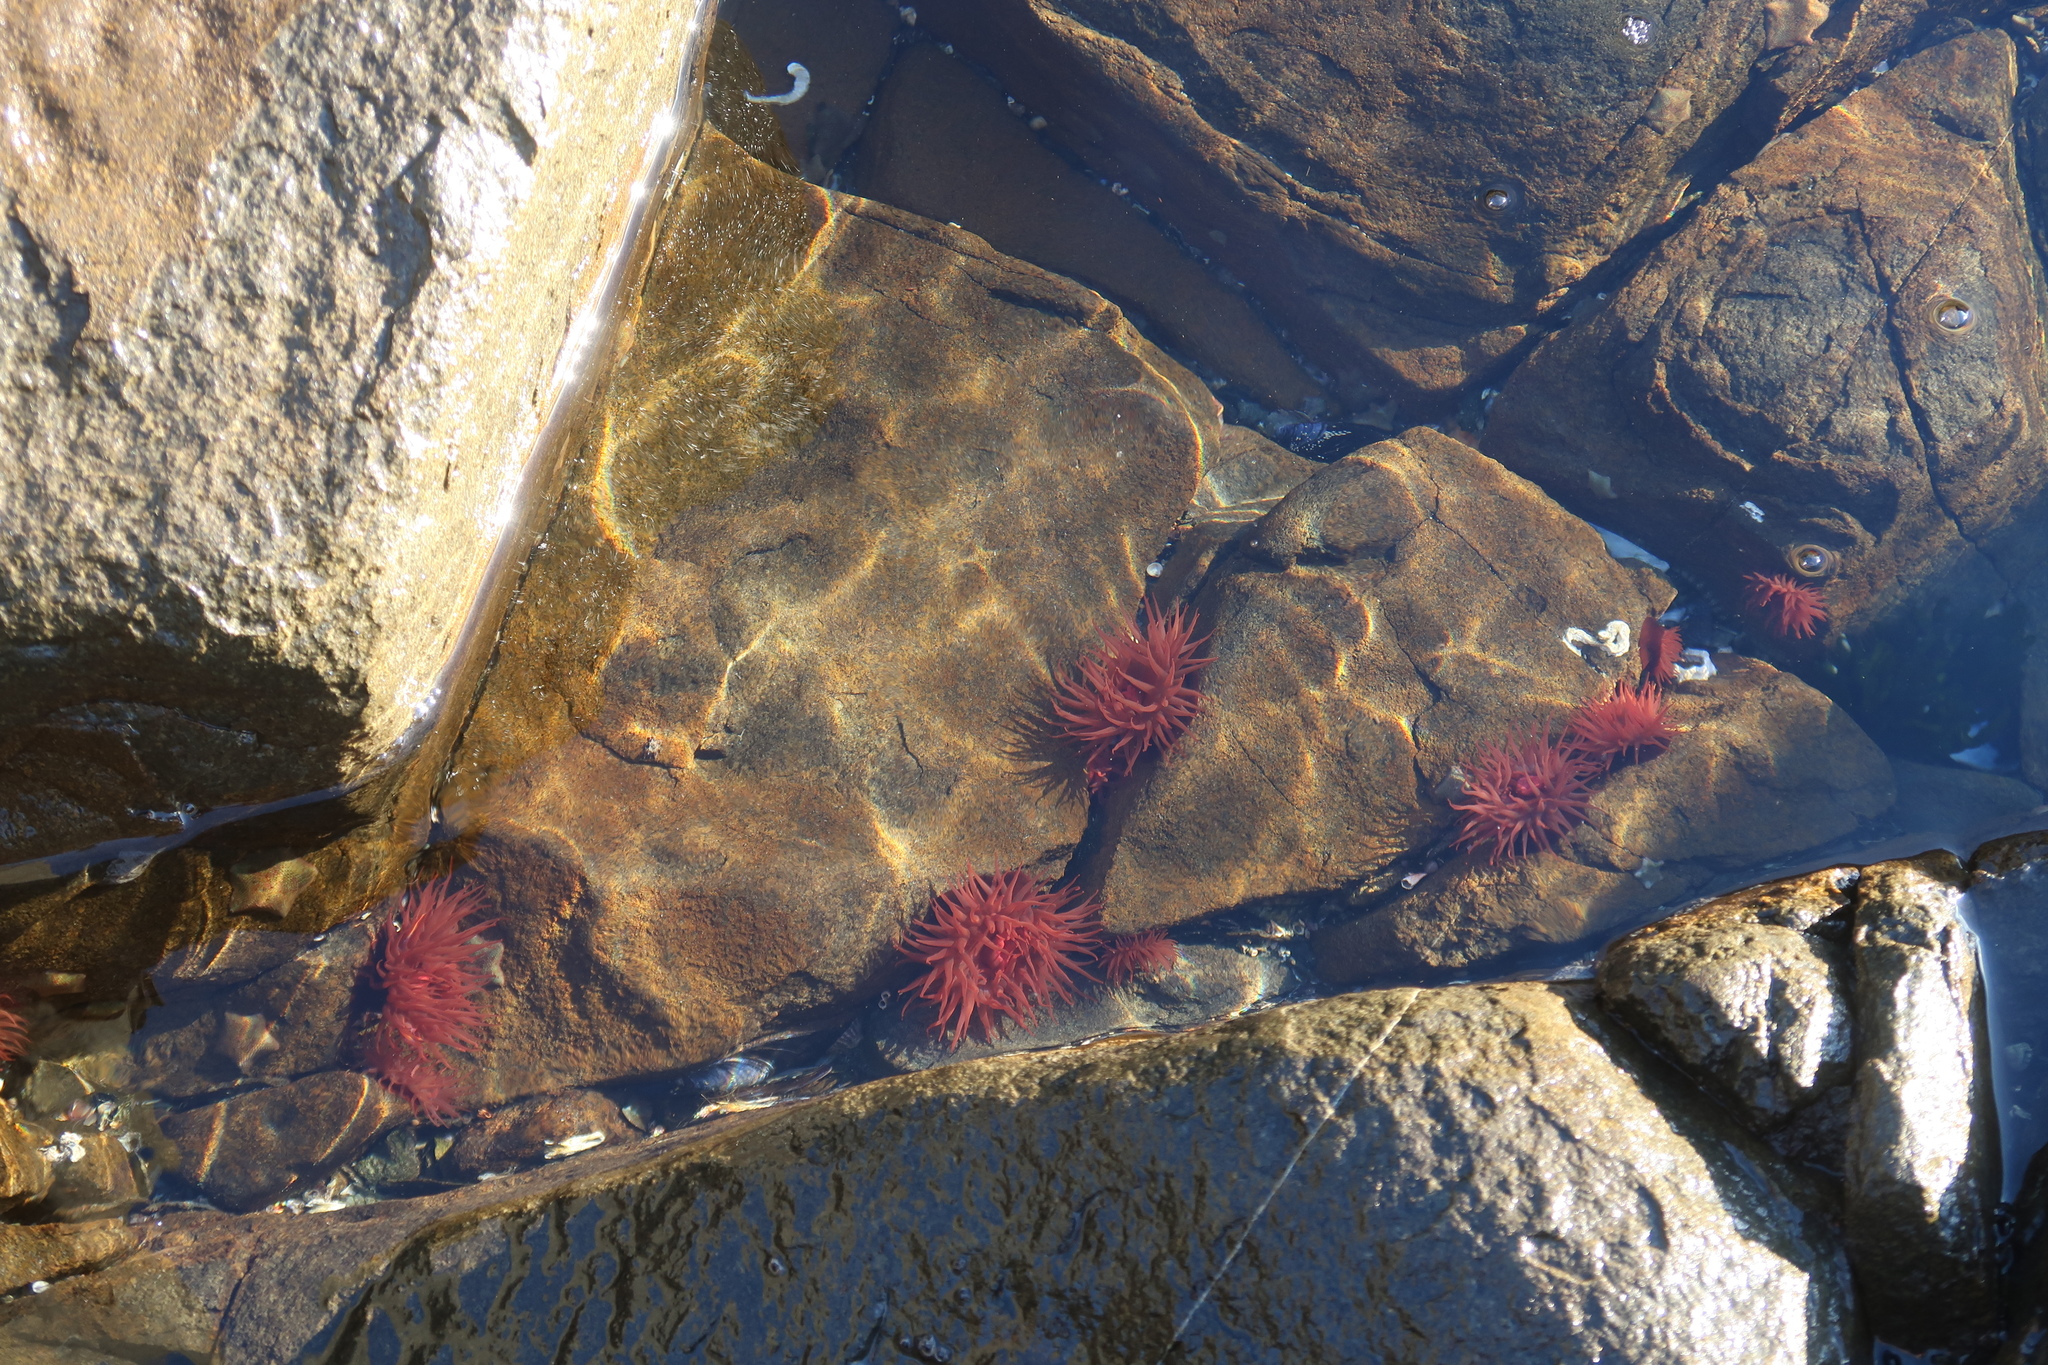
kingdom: Animalia
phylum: Cnidaria
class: Anthozoa
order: Actiniaria
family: Actiniidae
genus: Actinia
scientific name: Actinia tenebrosa
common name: Waratah anemone
